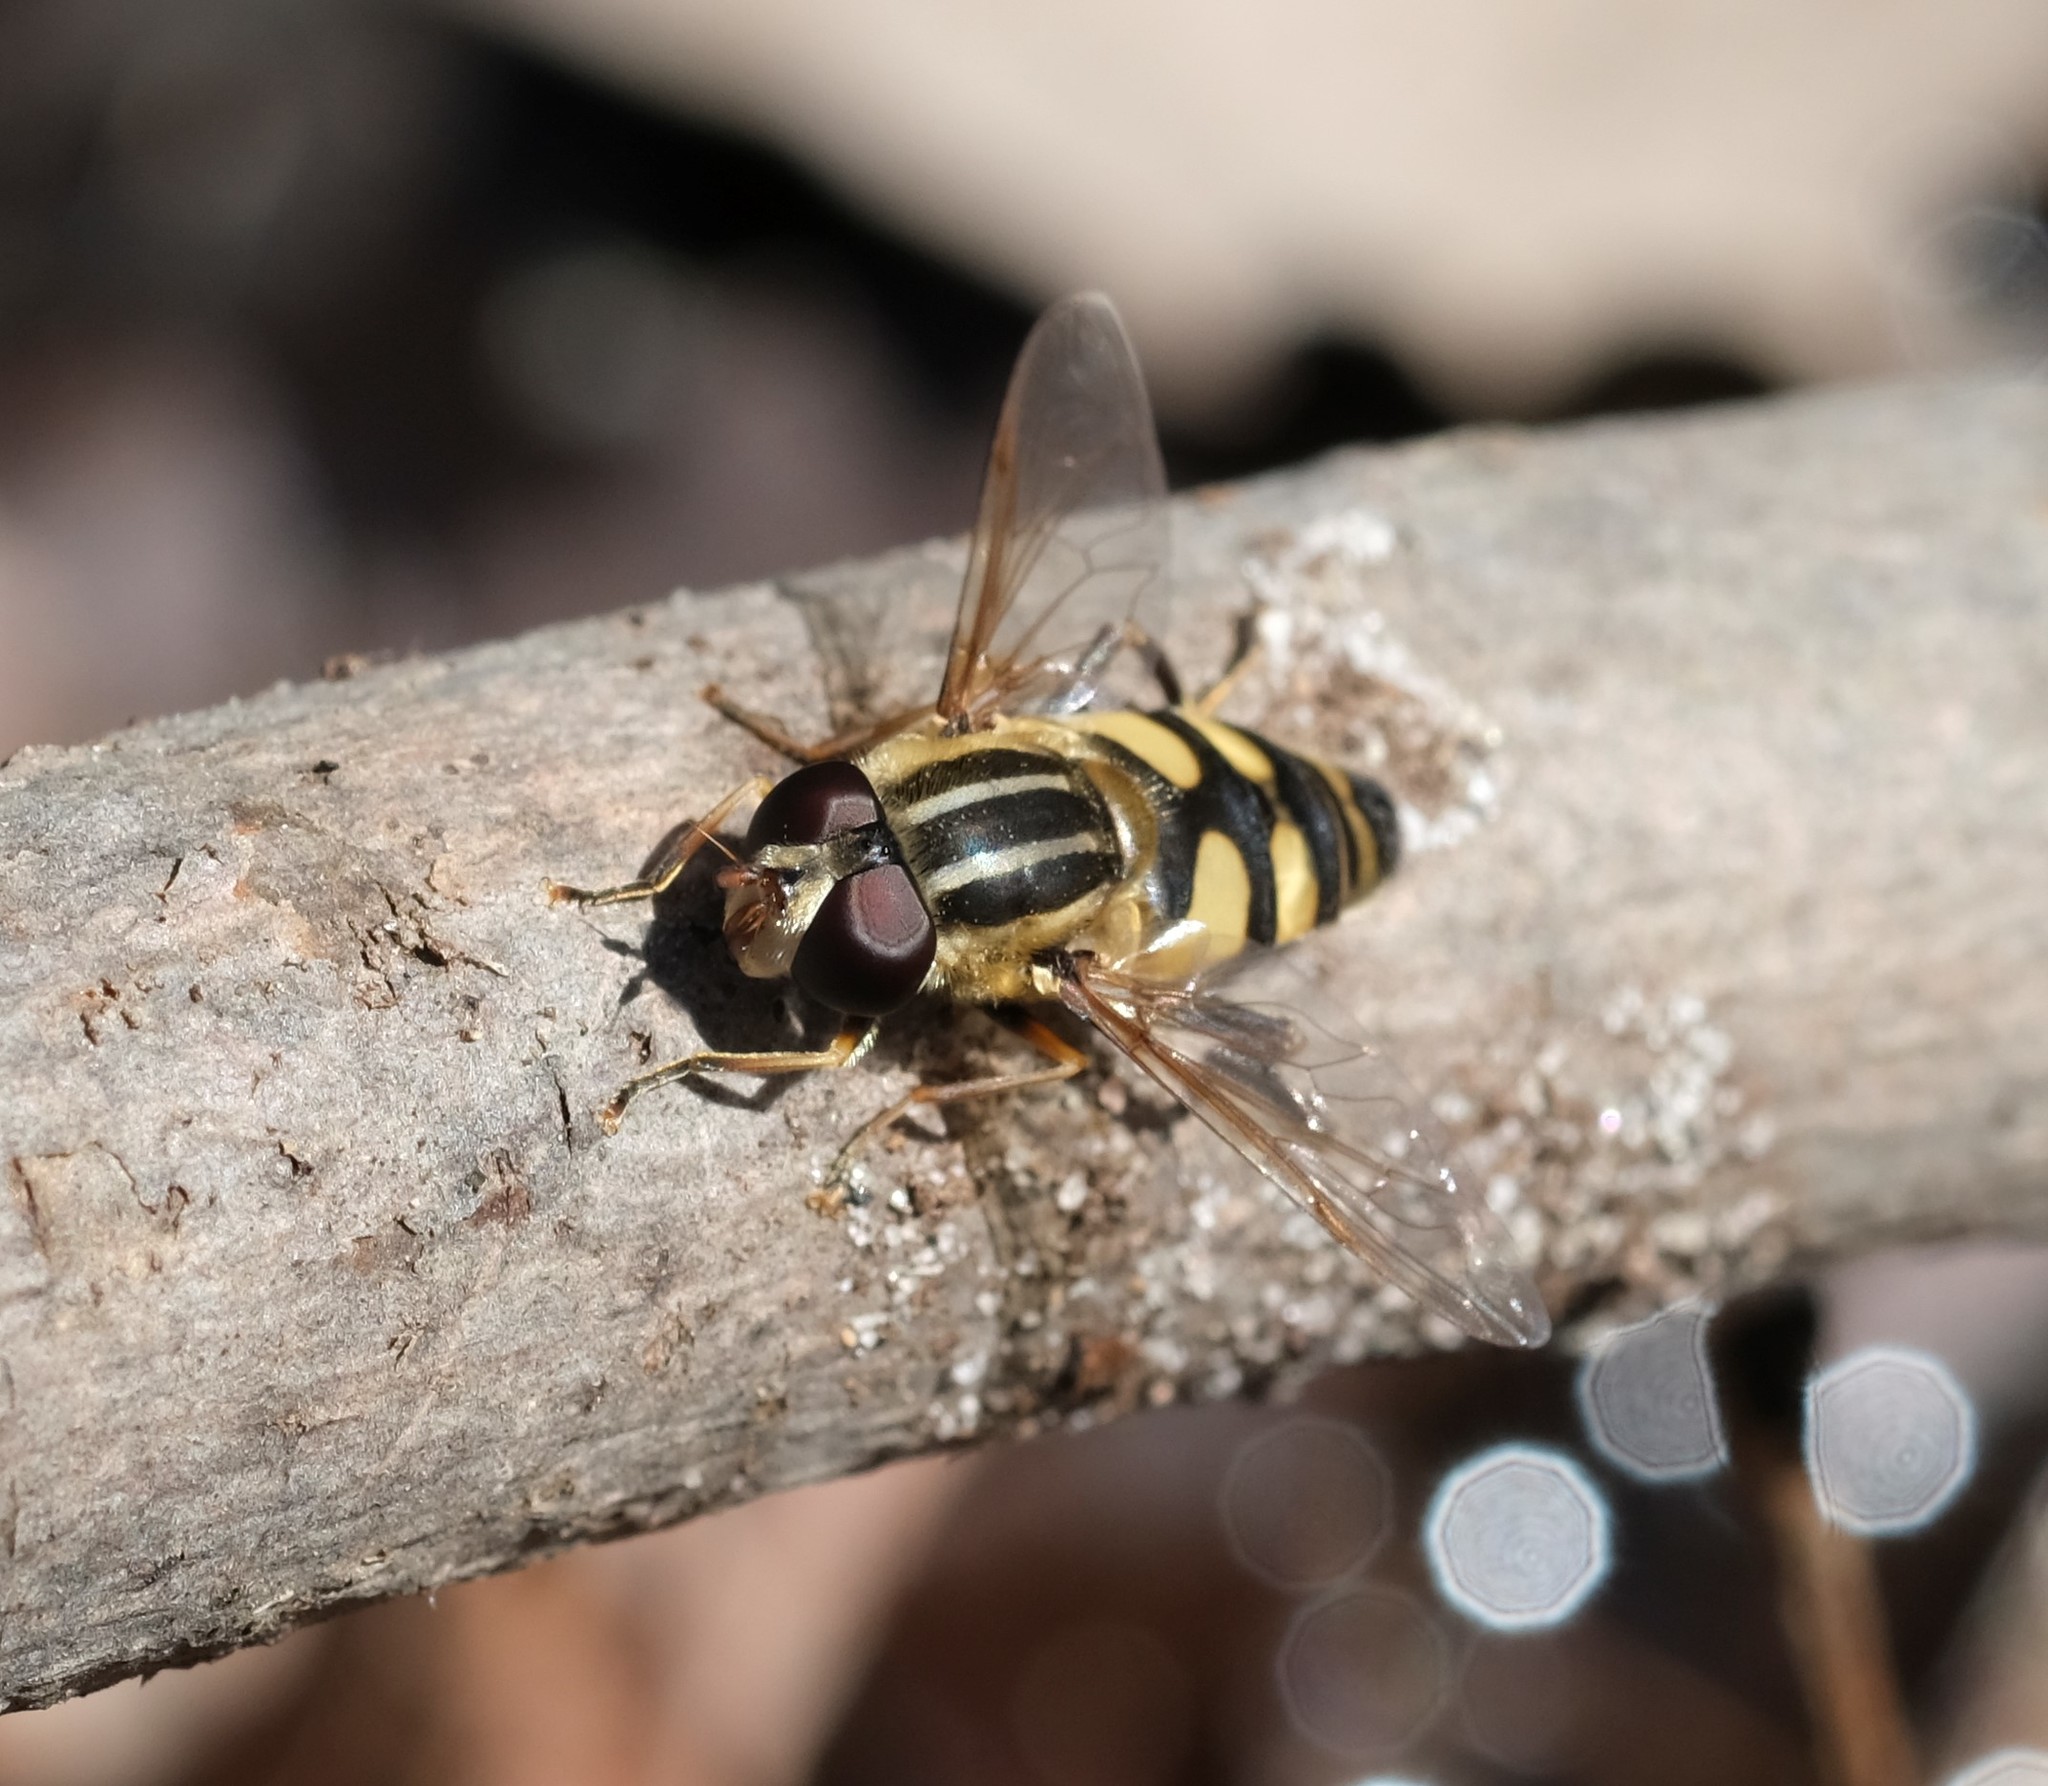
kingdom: Animalia
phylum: Arthropoda
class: Insecta
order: Diptera
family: Syrphidae
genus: Helophilus
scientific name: Helophilus fasciatus
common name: Narrow-headed marsh fly
